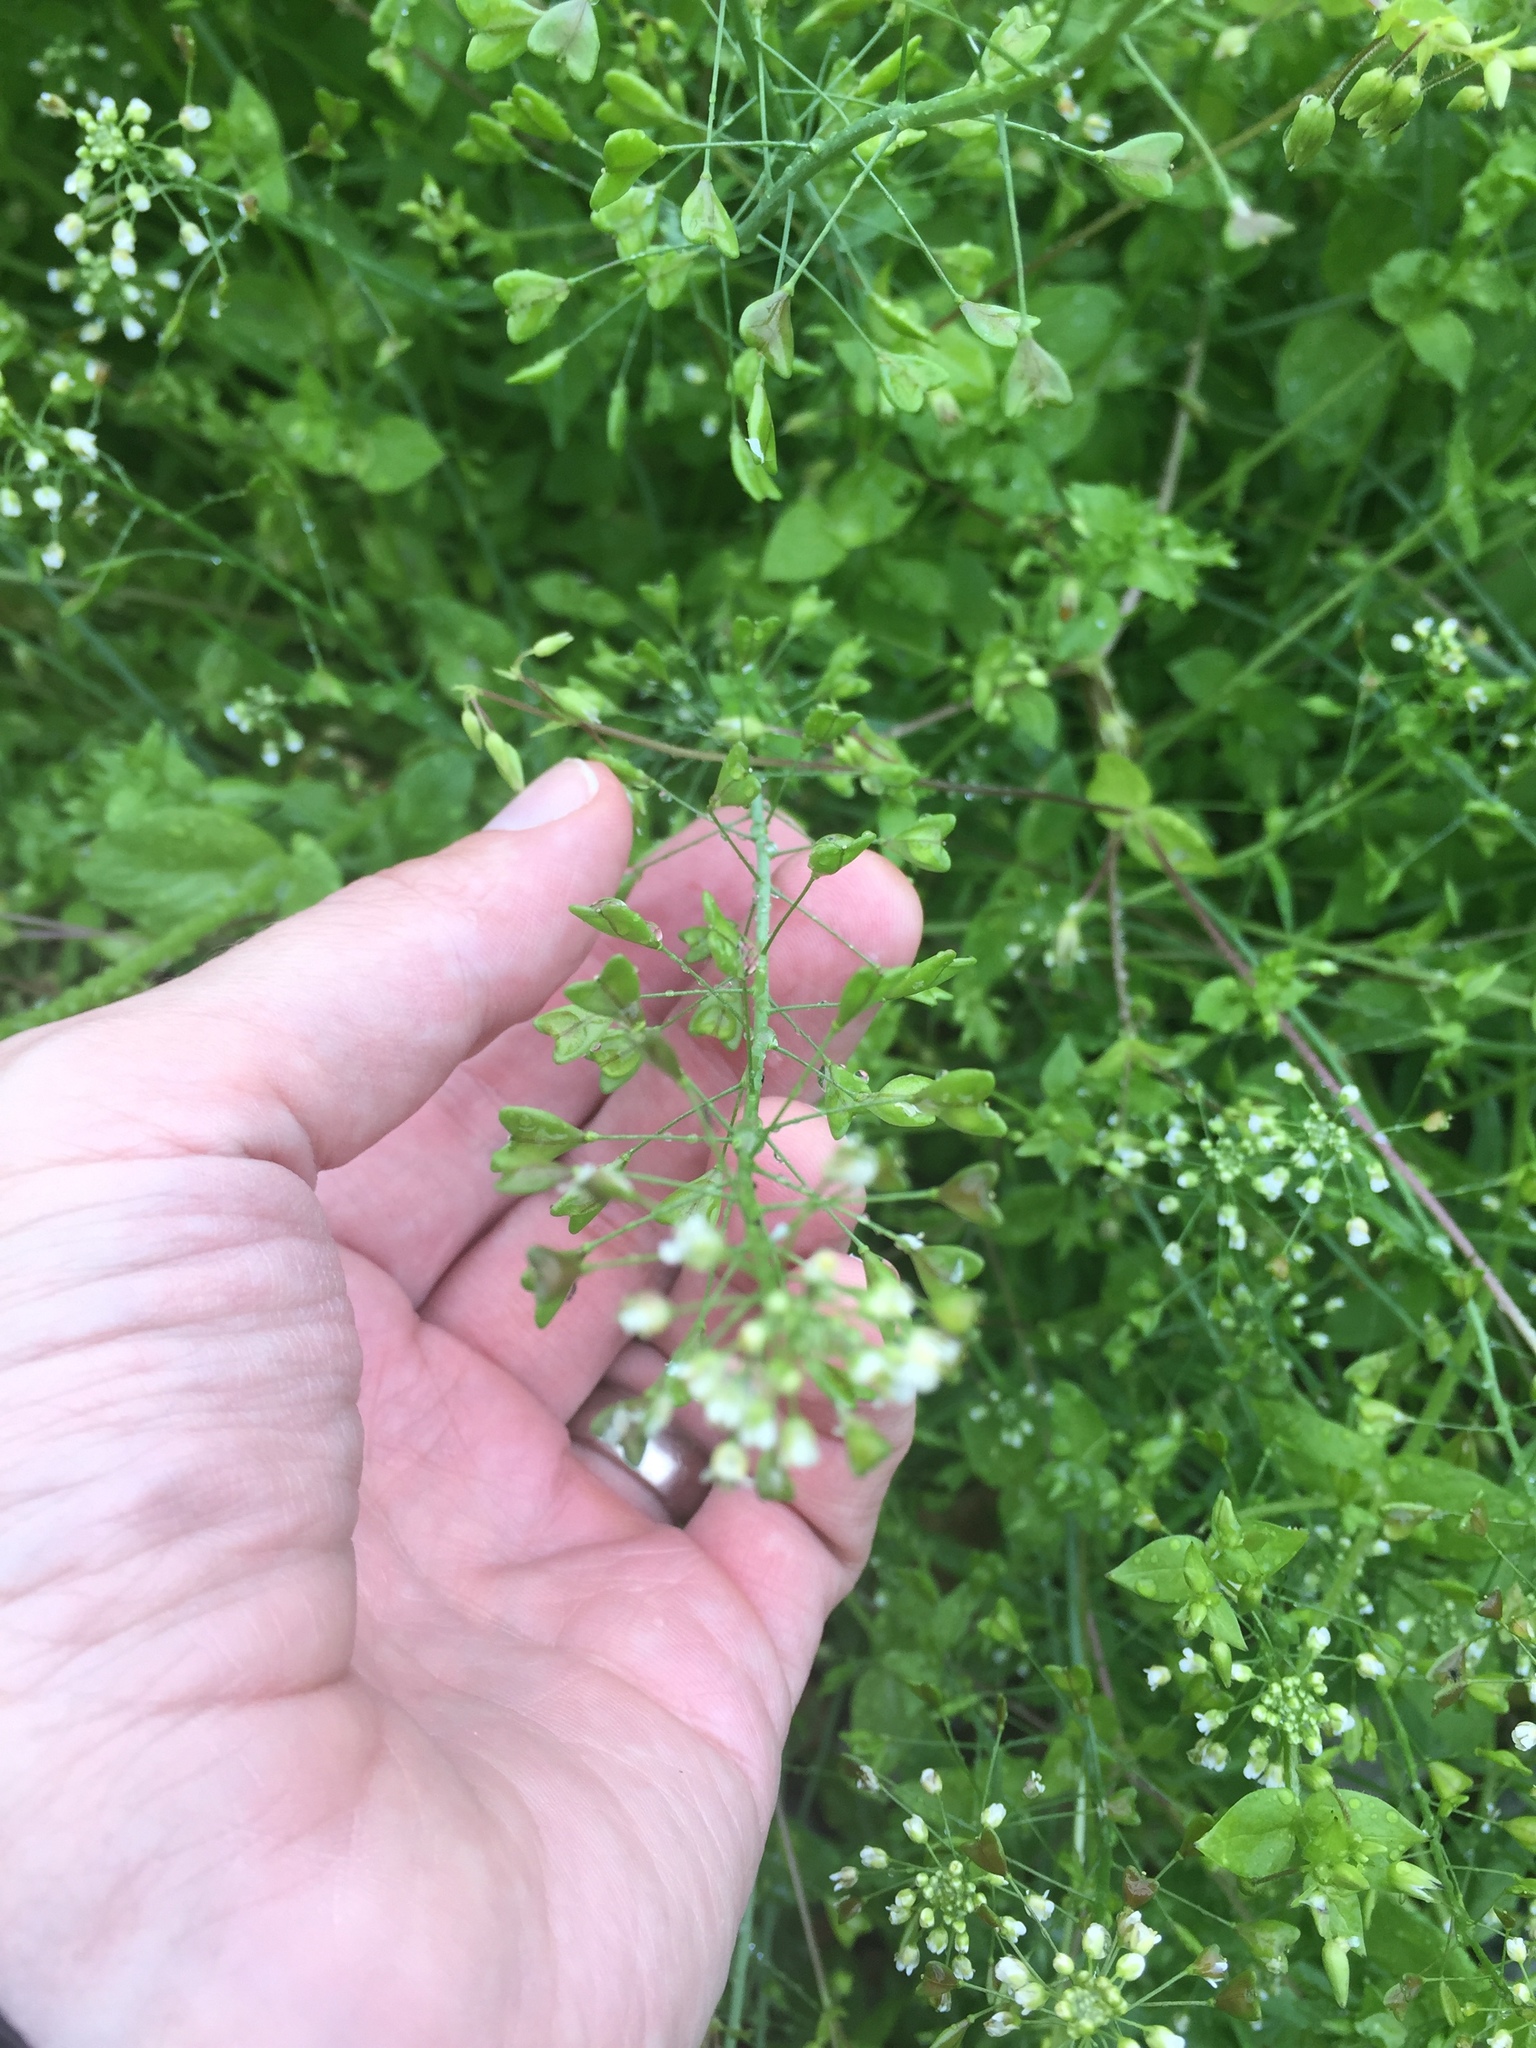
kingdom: Plantae
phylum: Tracheophyta
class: Magnoliopsida
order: Brassicales
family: Brassicaceae
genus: Capsella
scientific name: Capsella bursa-pastoris
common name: Shepherd's purse
